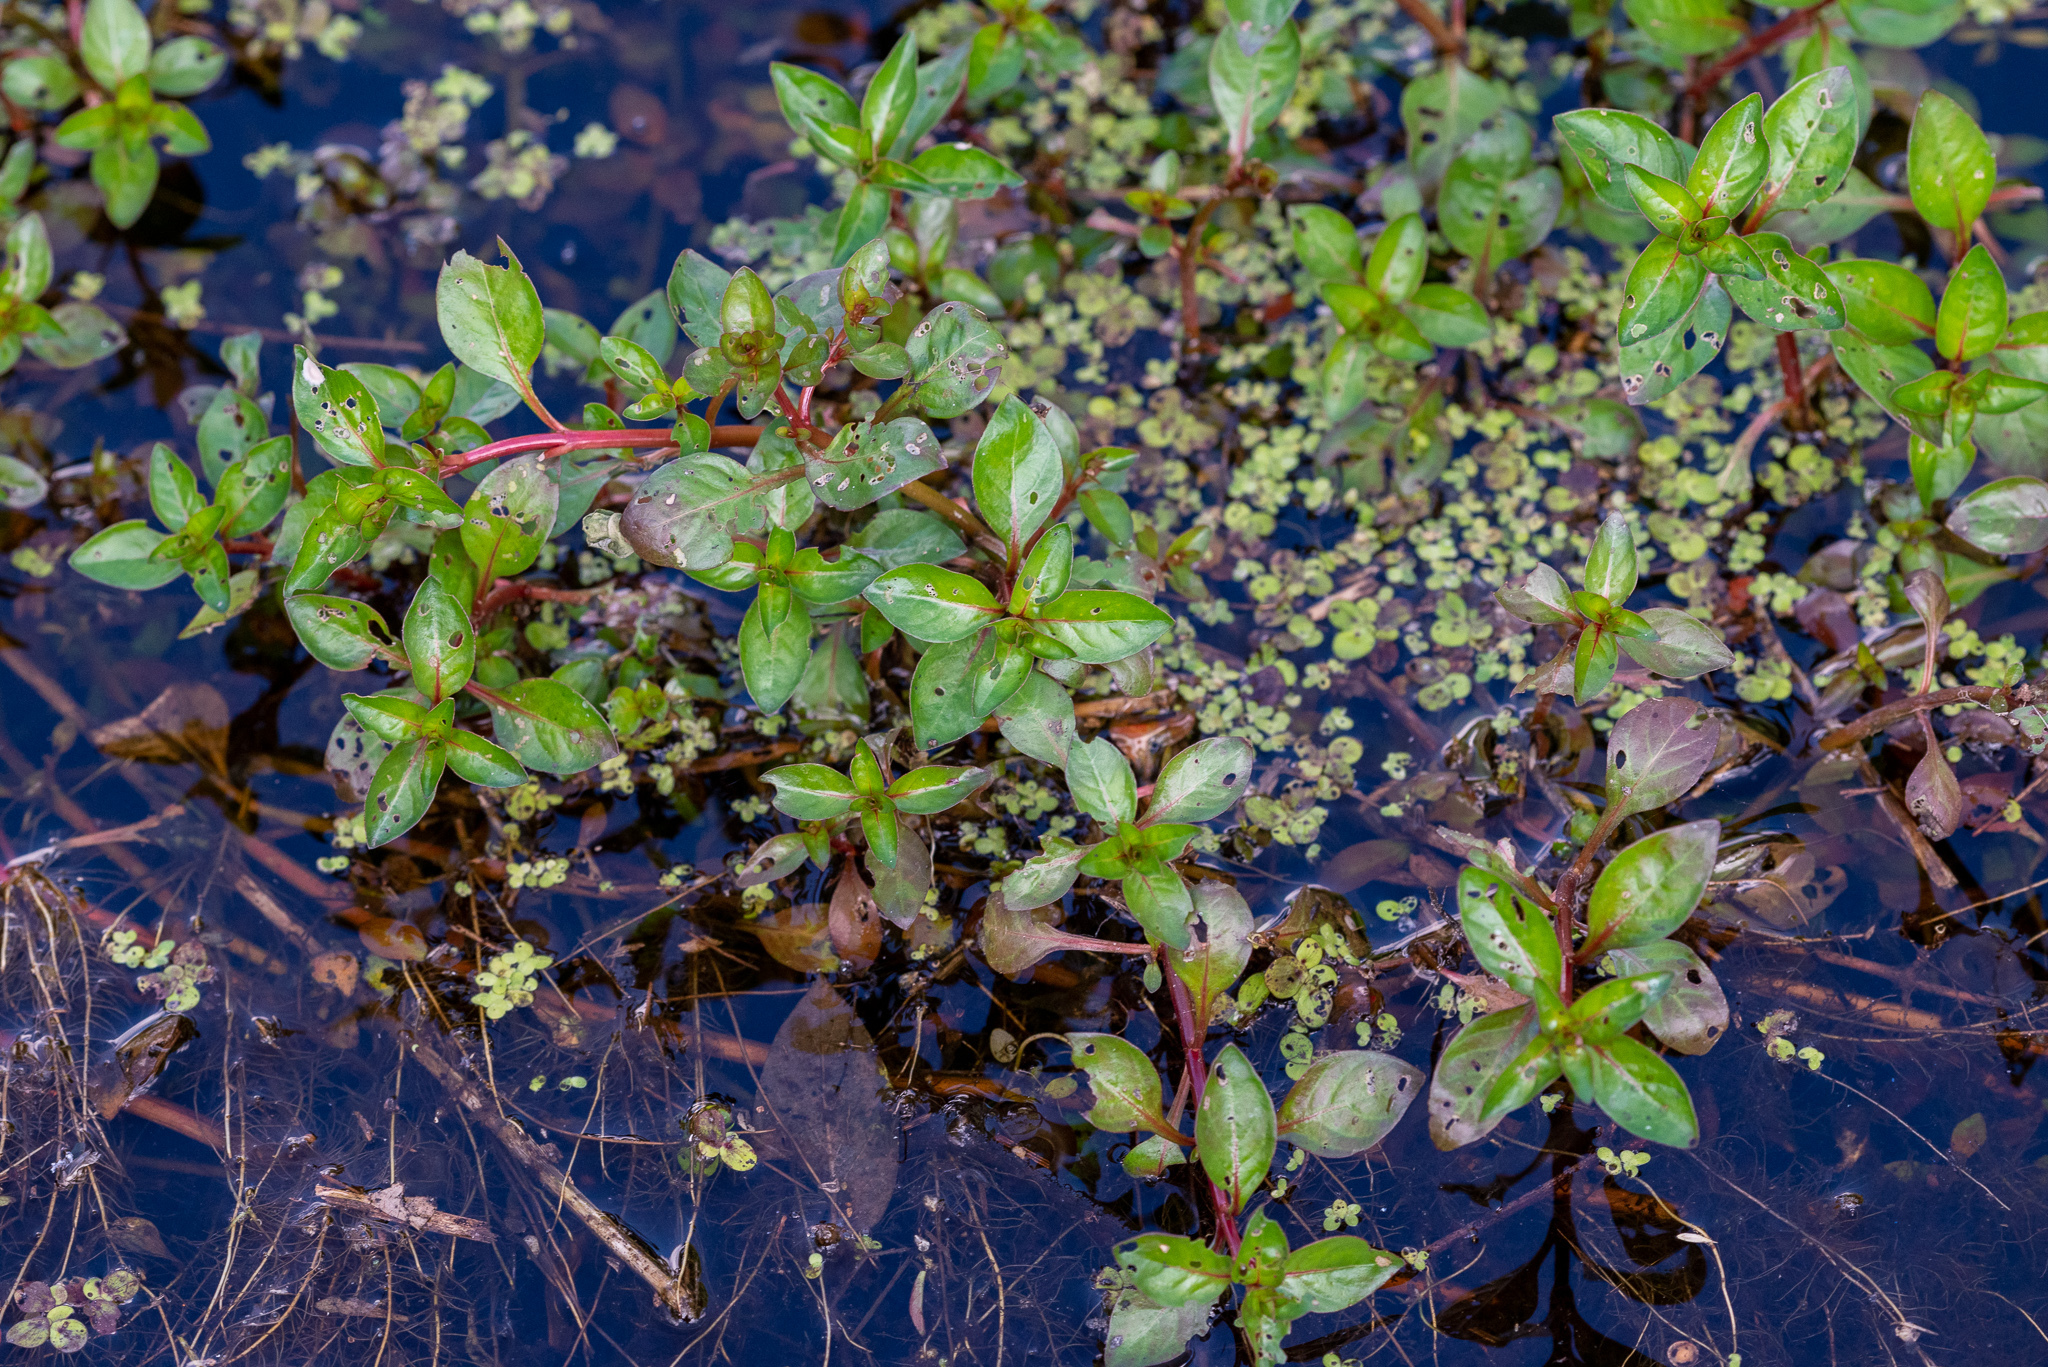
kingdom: Plantae
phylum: Tracheophyta
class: Magnoliopsida
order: Myrtales
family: Onagraceae
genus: Ludwigia
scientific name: Ludwigia palustris
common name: Hampshire-purslane
